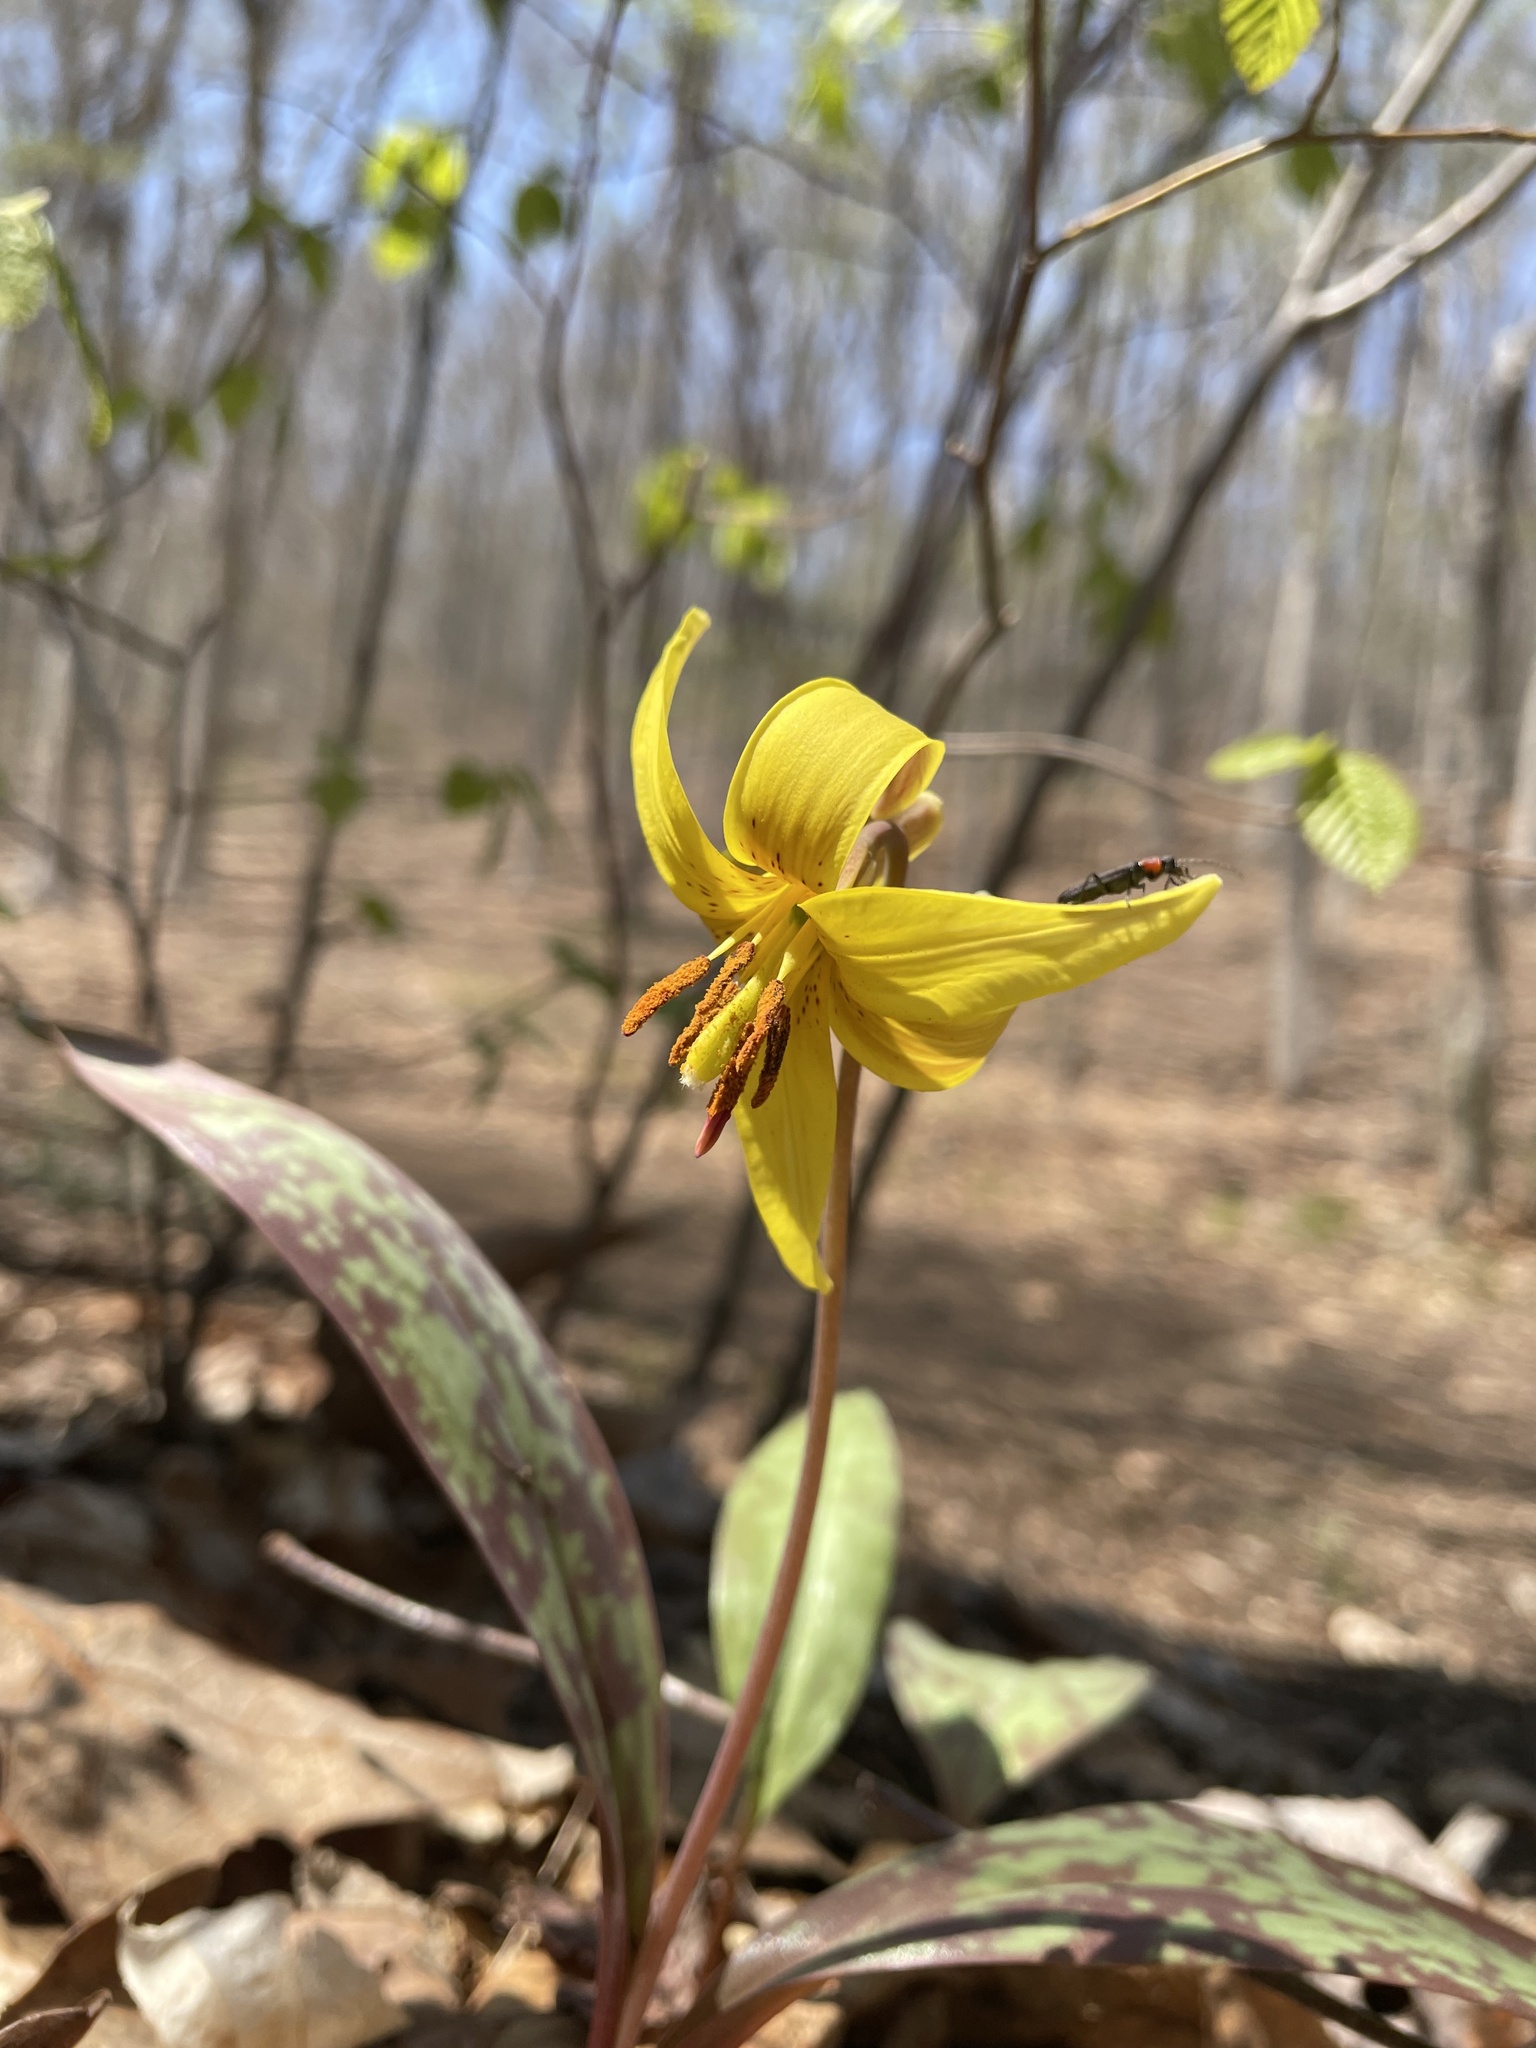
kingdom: Plantae
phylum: Tracheophyta
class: Liliopsida
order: Liliales
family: Liliaceae
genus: Erythronium
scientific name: Erythronium americanum
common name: Yellow adder's-tongue
